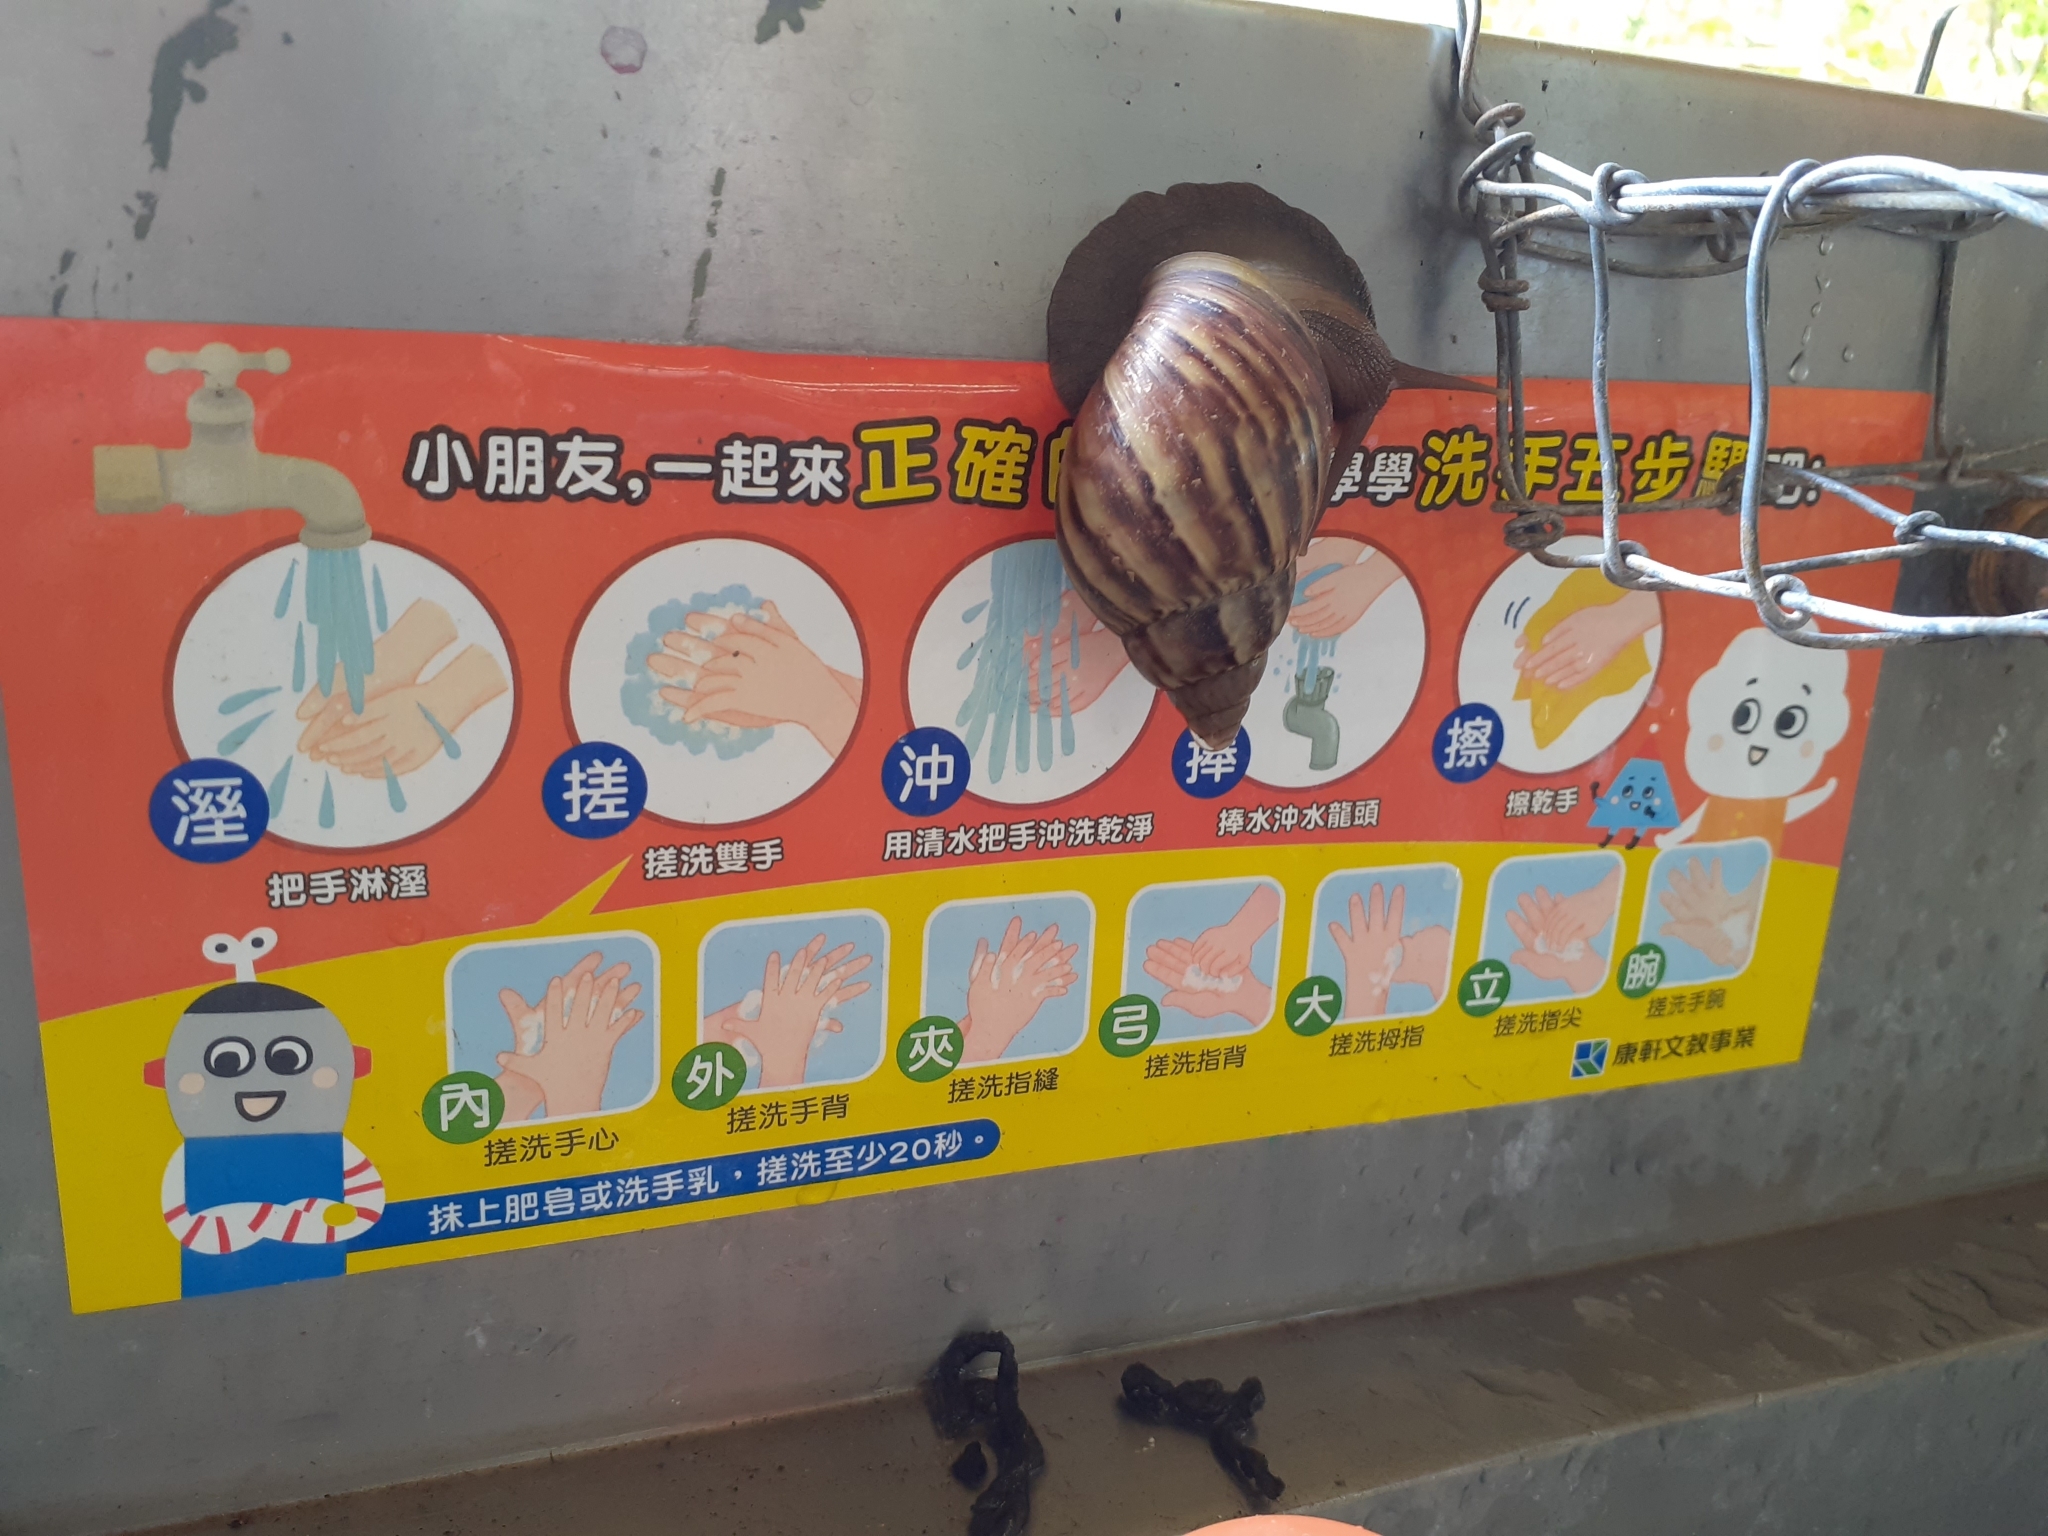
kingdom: Animalia
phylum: Mollusca
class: Gastropoda
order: Stylommatophora
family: Achatinidae
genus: Lissachatina
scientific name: Lissachatina fulica
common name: Giant african snail
